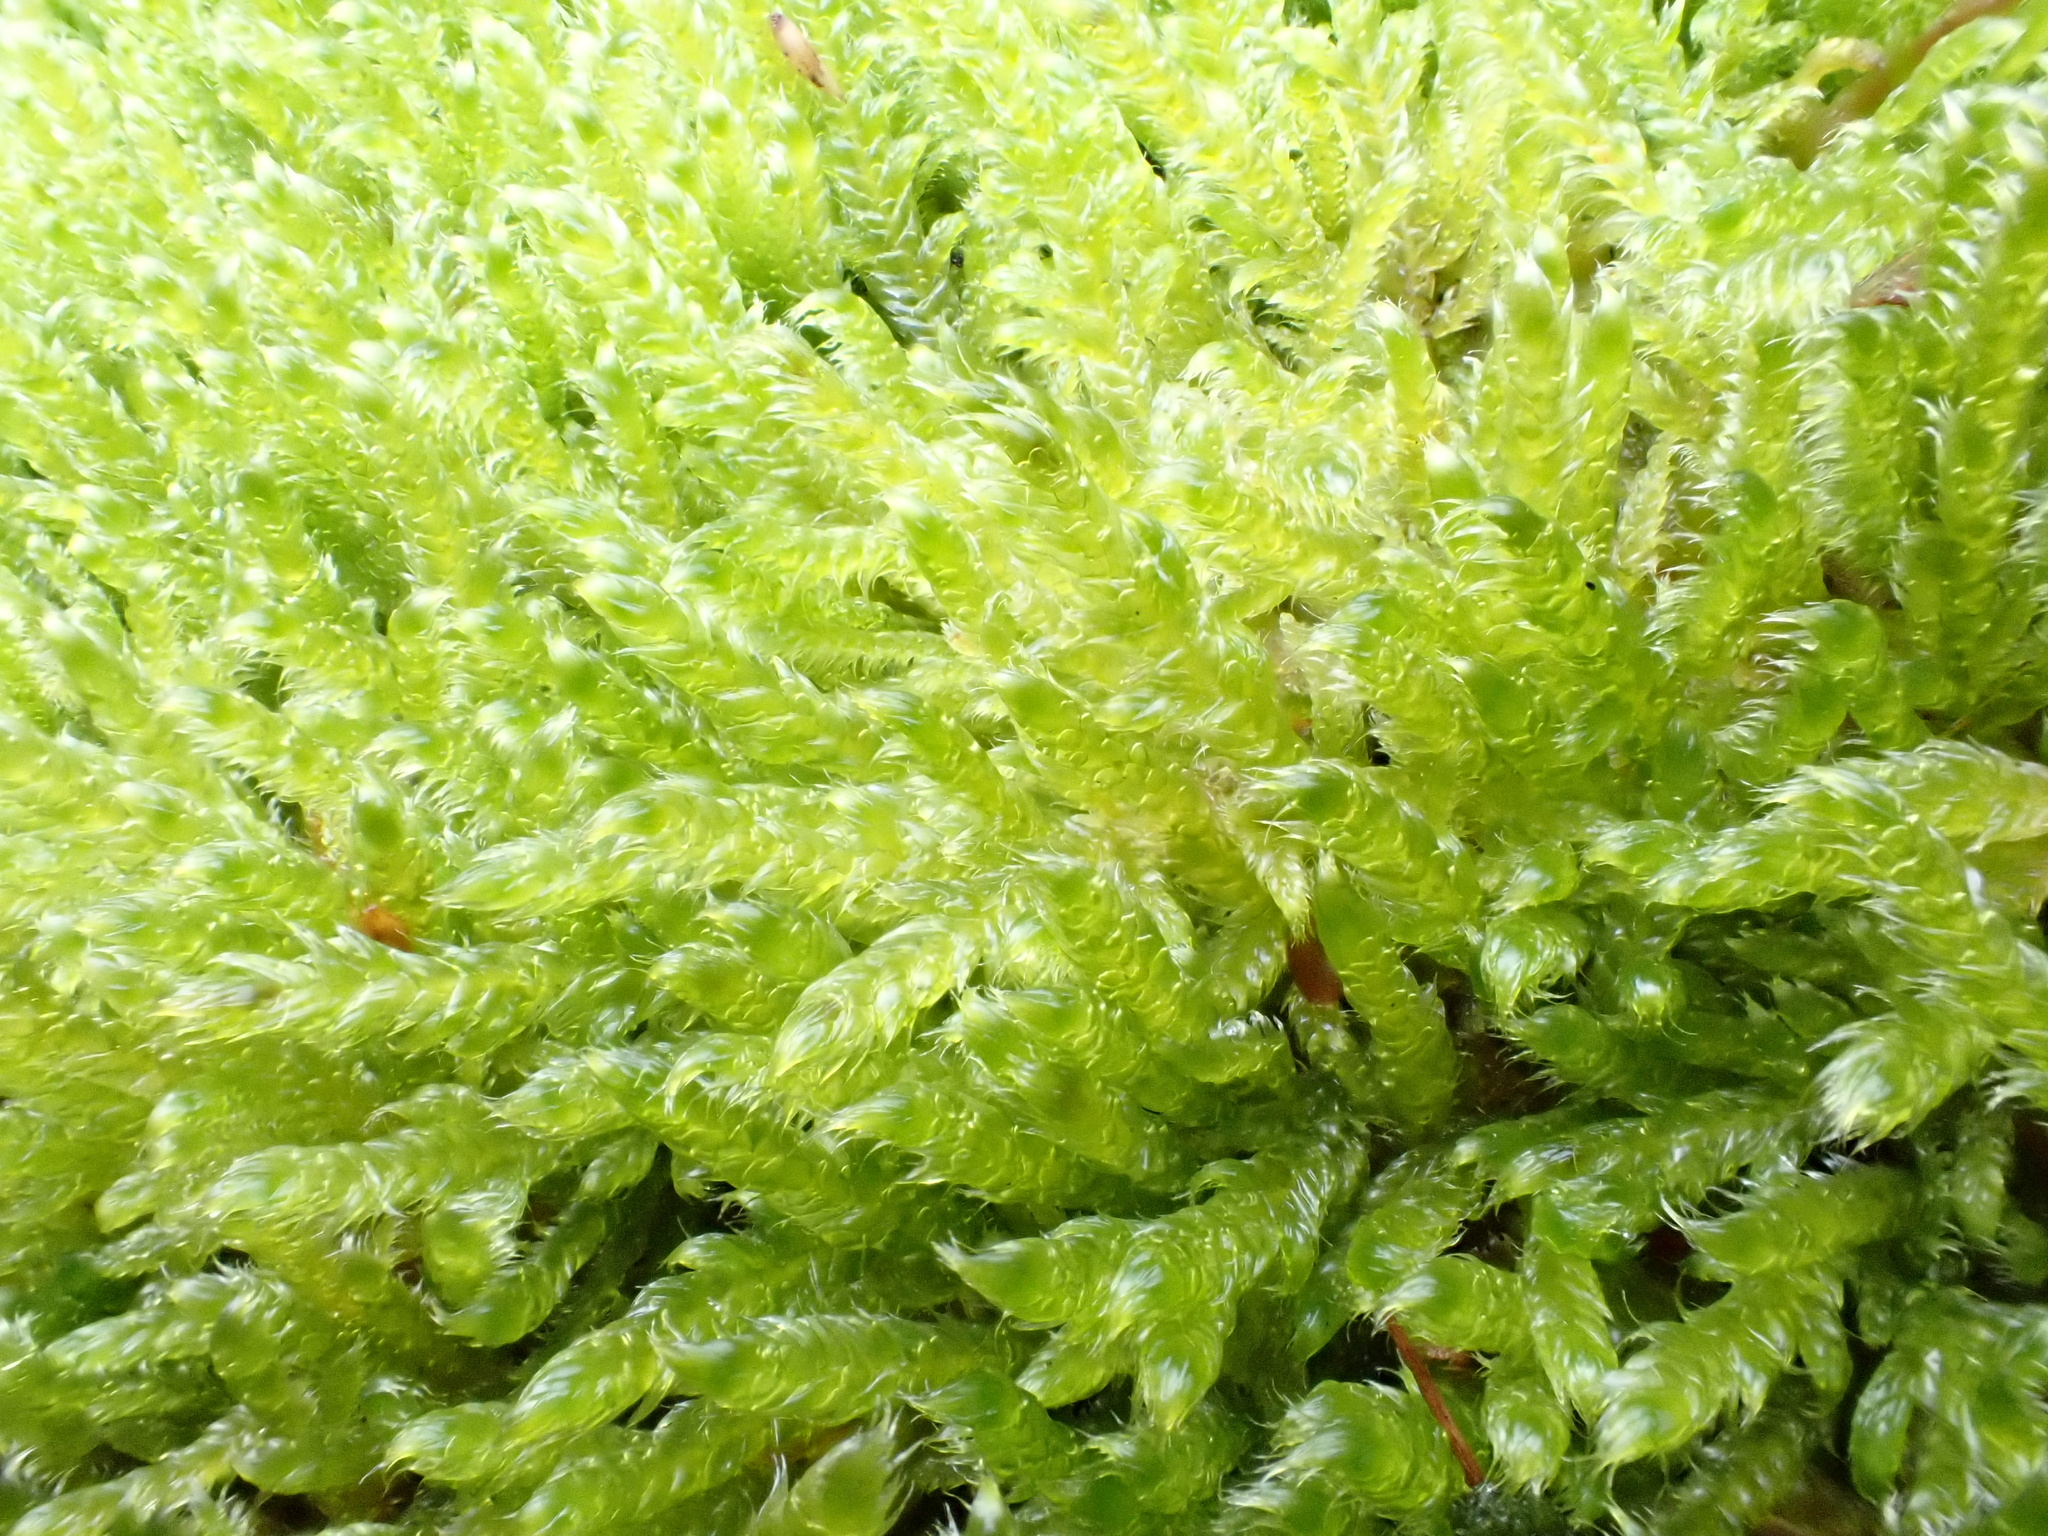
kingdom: Plantae
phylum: Bryophyta
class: Bryopsida
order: Hypnales
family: Hypnaceae
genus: Hypnum
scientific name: Hypnum cupressiforme
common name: Cypress-leaved plait-moss
